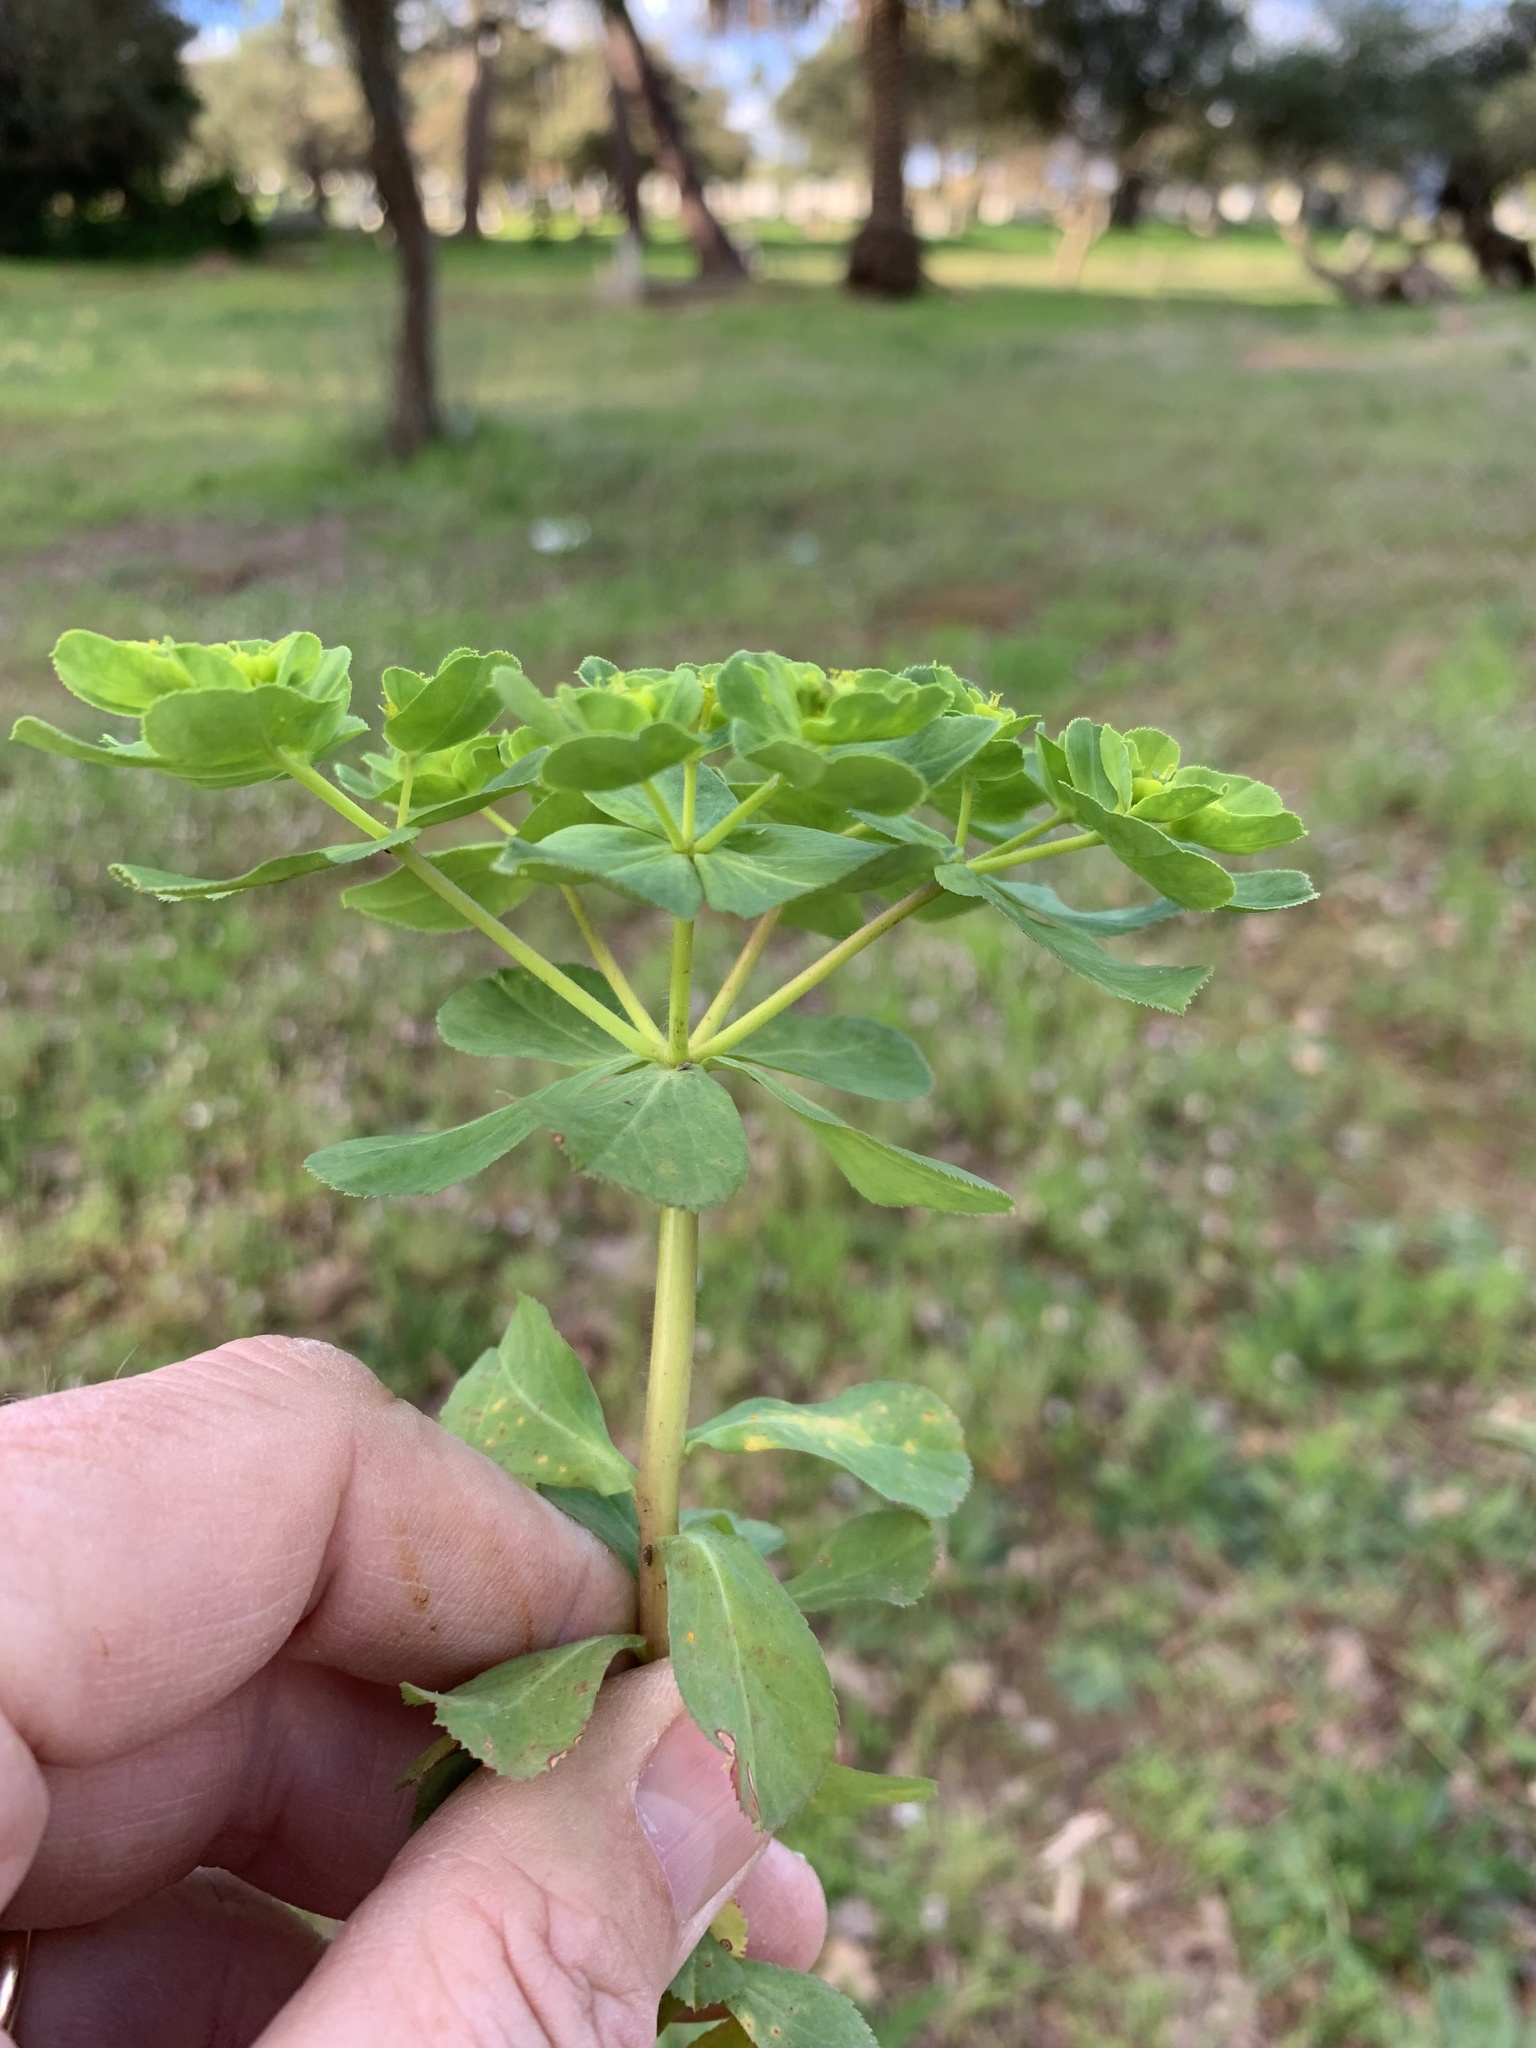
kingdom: Plantae
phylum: Tracheophyta
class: Magnoliopsida
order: Malpighiales
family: Euphorbiaceae
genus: Euphorbia
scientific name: Euphorbia helioscopia
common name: Sun spurge
